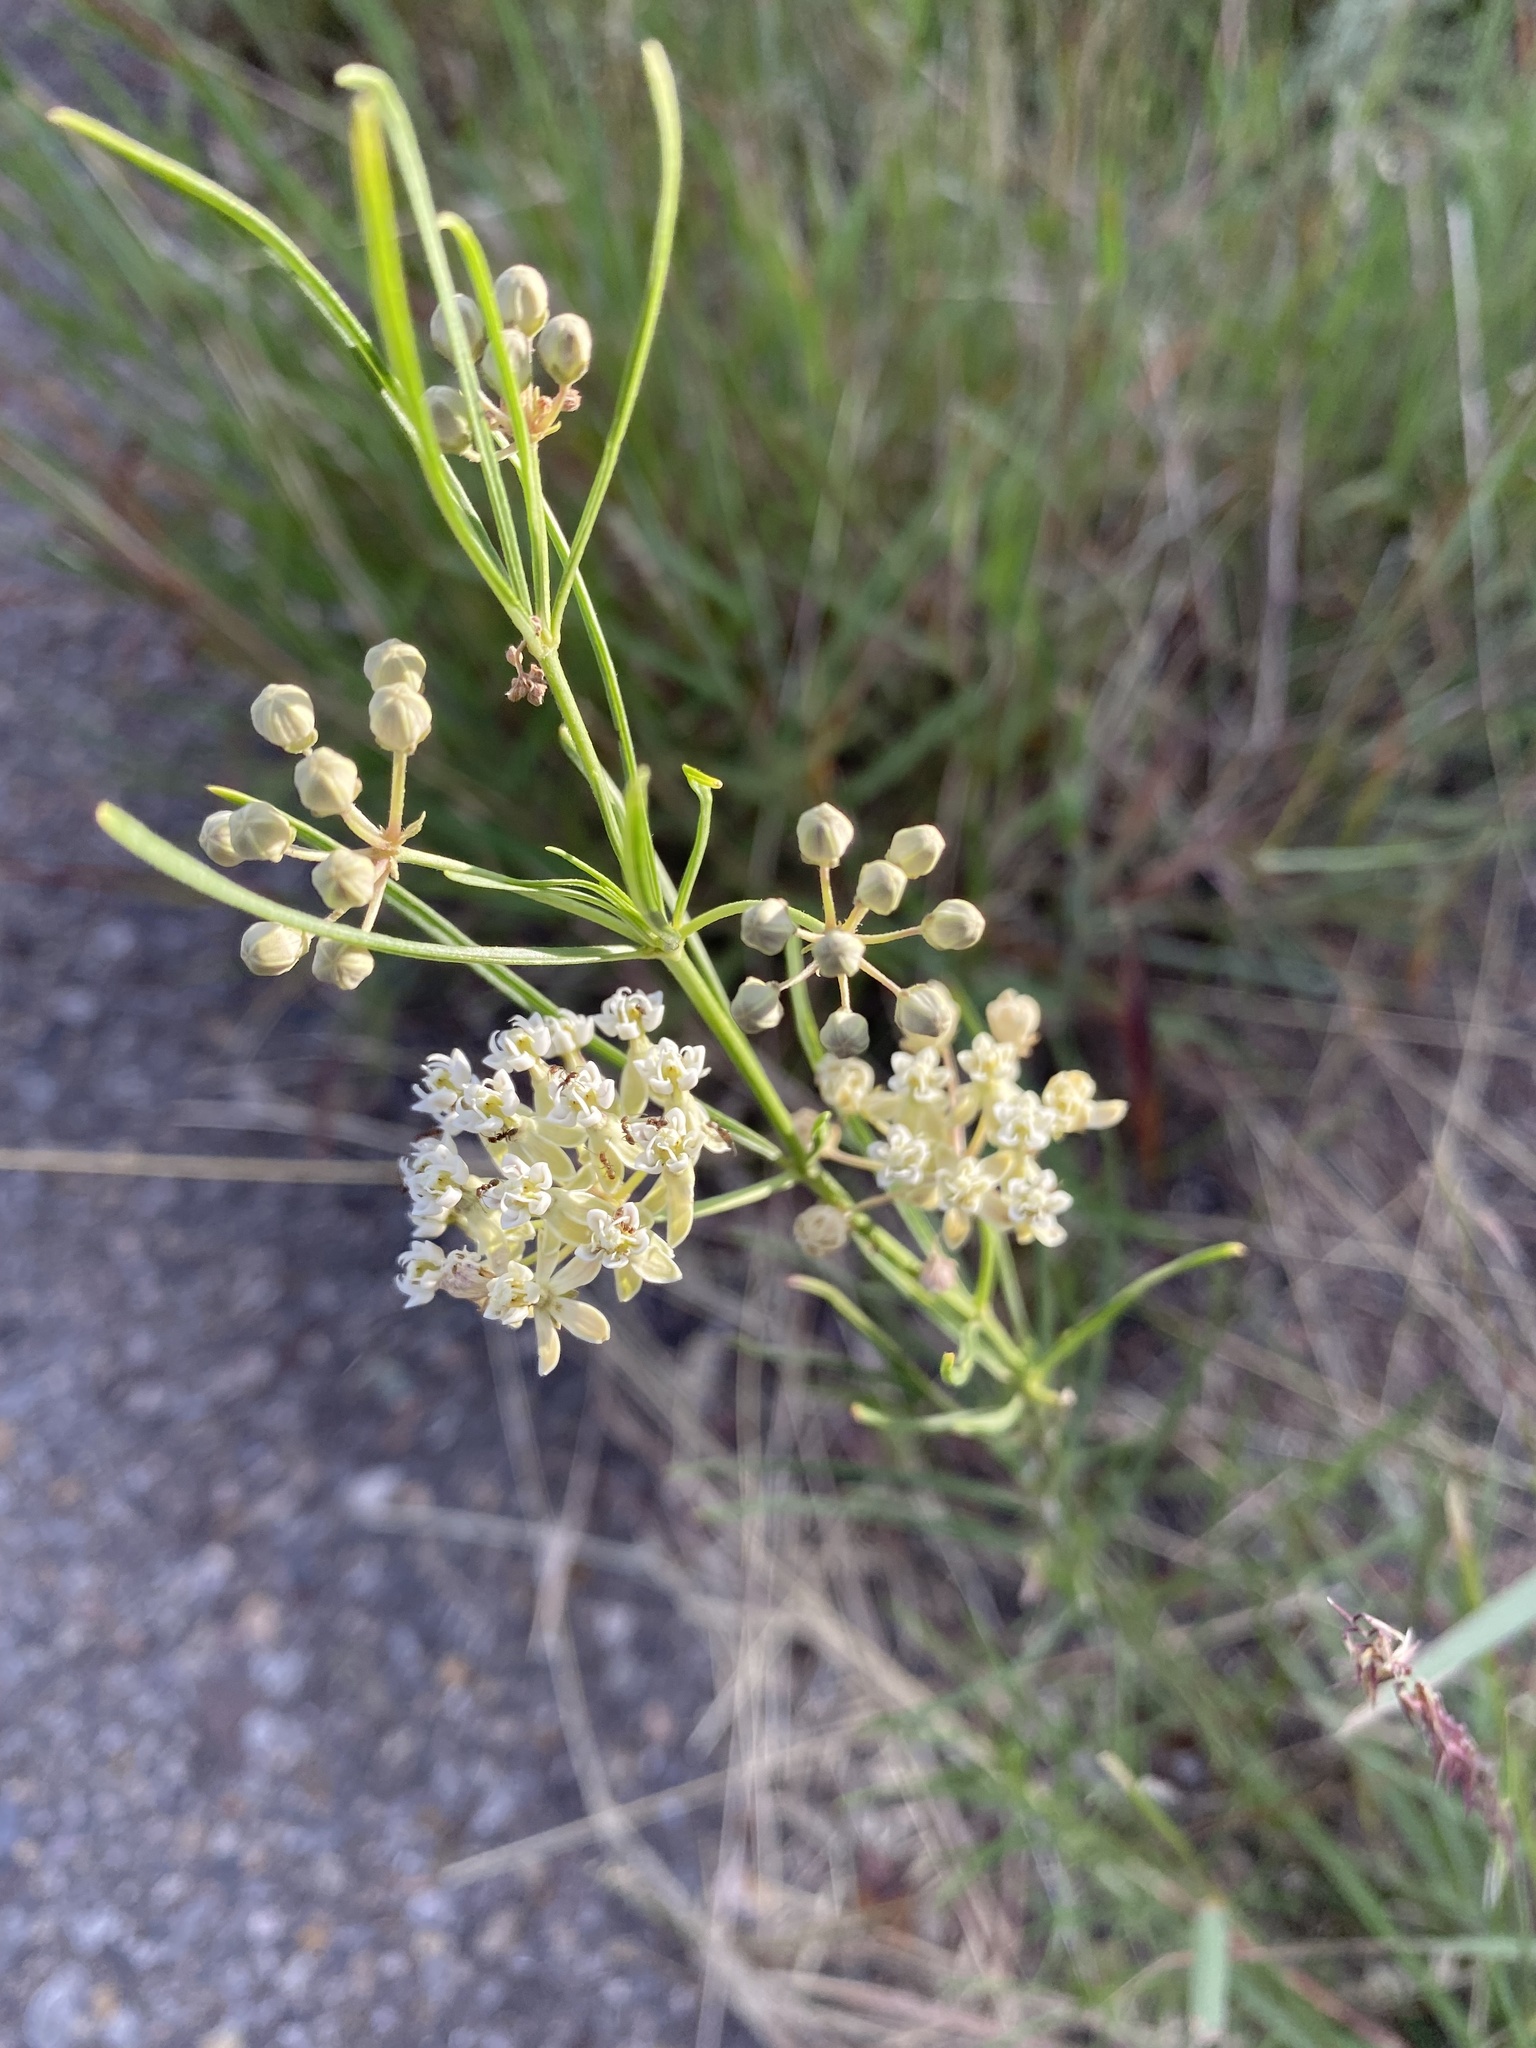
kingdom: Plantae
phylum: Tracheophyta
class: Magnoliopsida
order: Gentianales
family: Apocynaceae
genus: Asclepias
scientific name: Asclepias subverticillata
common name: Horsetail milkweed
